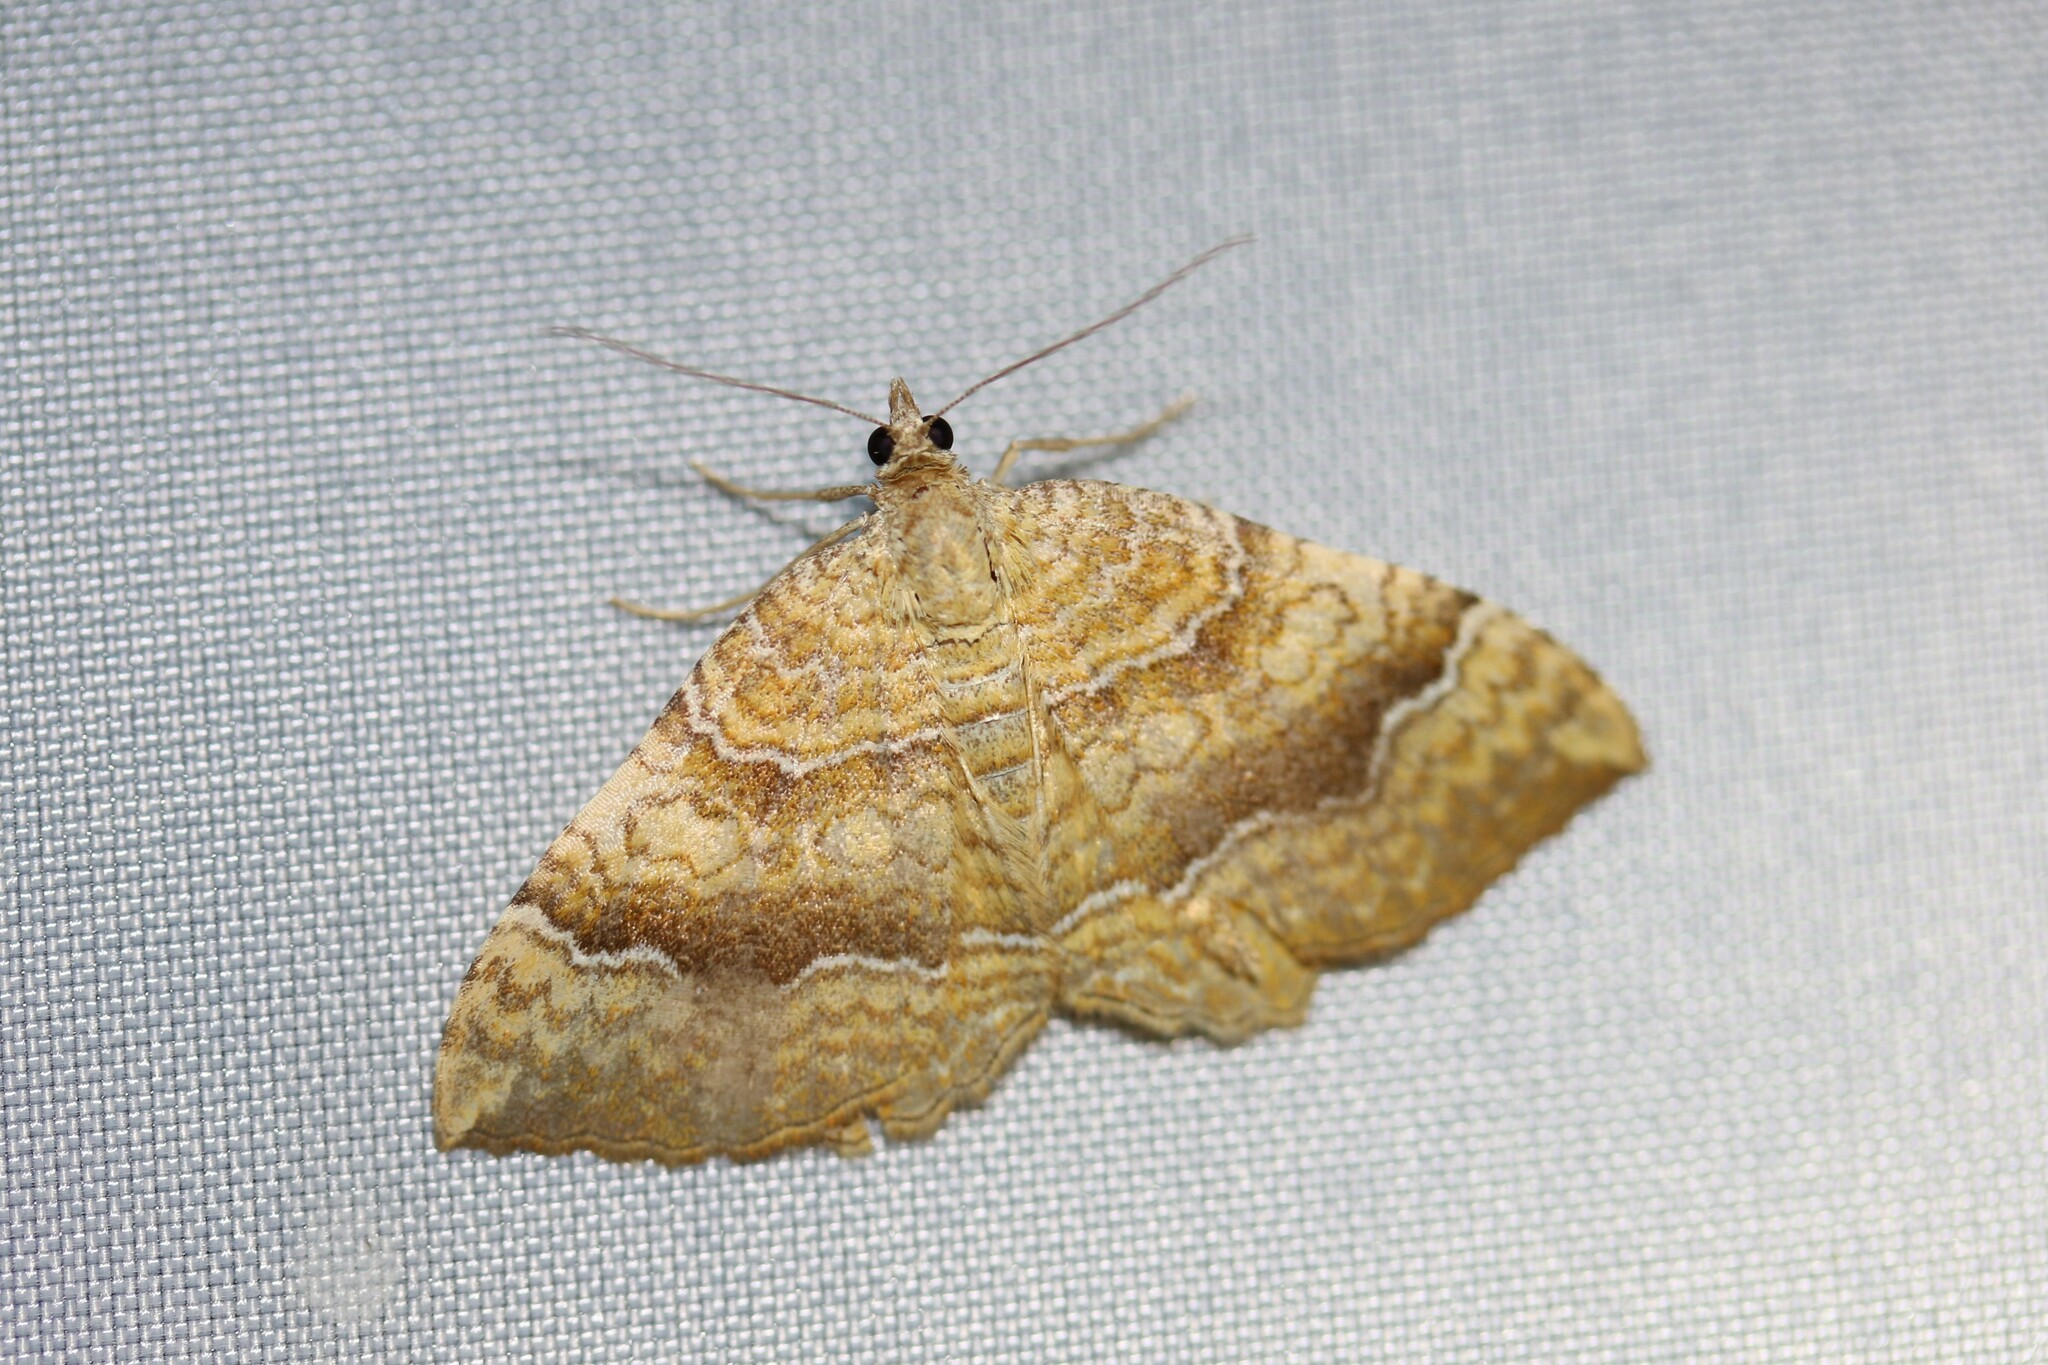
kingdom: Animalia
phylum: Arthropoda
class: Insecta
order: Lepidoptera
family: Geometridae
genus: Camptogramma
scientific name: Camptogramma bilineata
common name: Yellow shell
